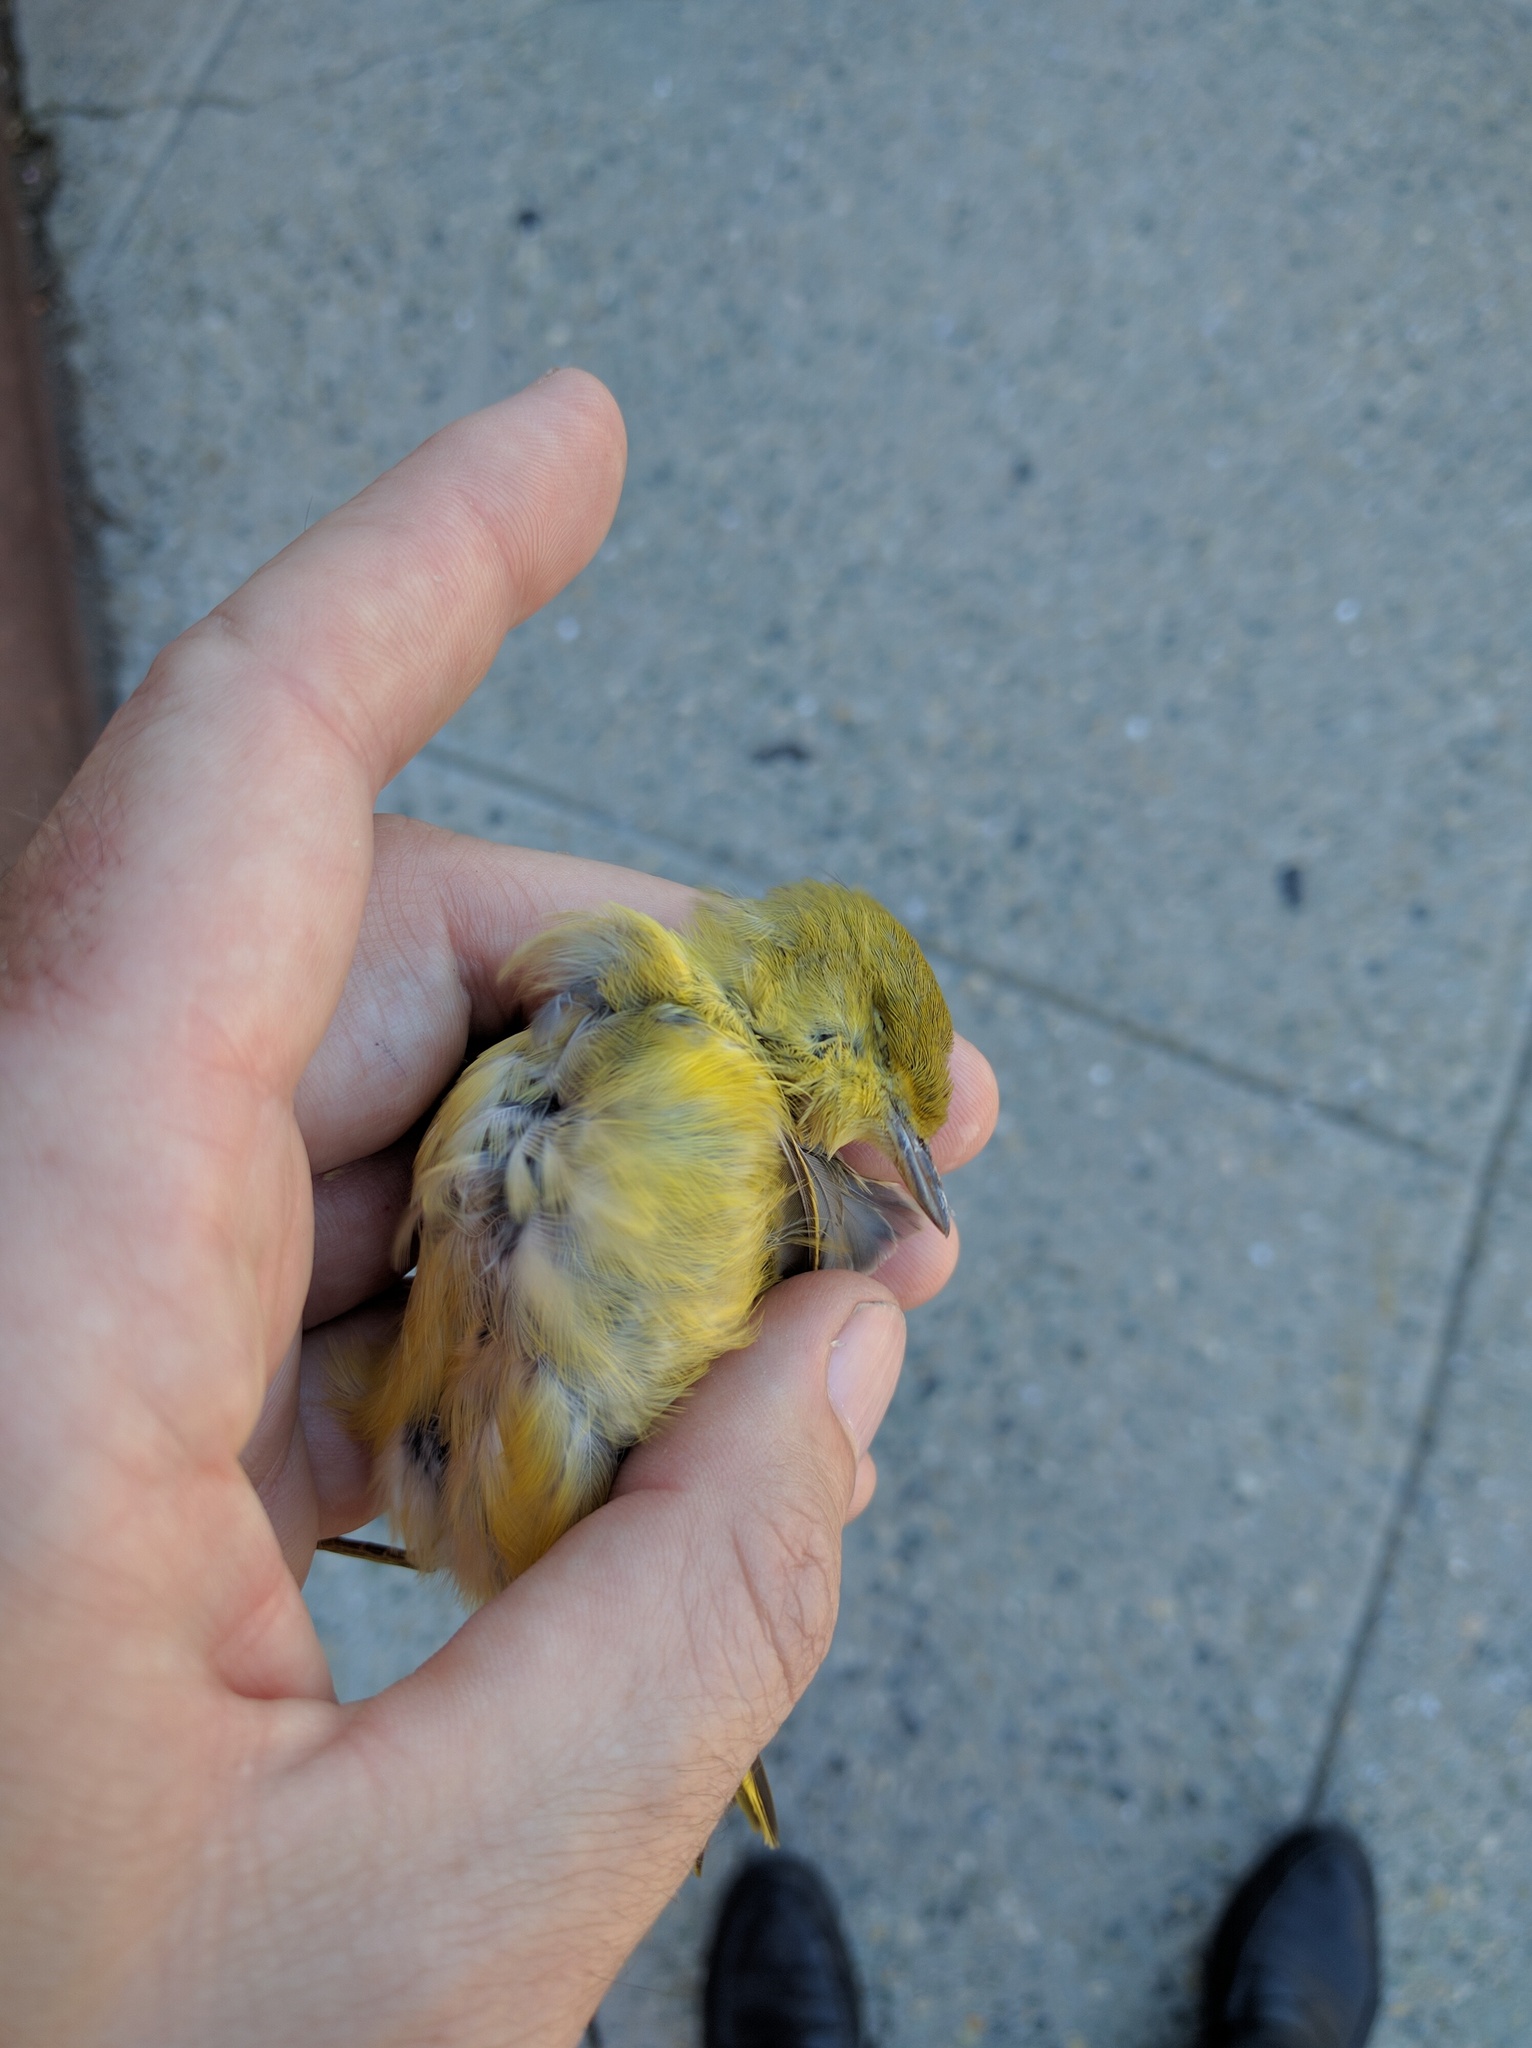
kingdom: Animalia
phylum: Chordata
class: Aves
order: Passeriformes
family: Parulidae
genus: Setophaga
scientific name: Setophaga petechia
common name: Yellow warbler
